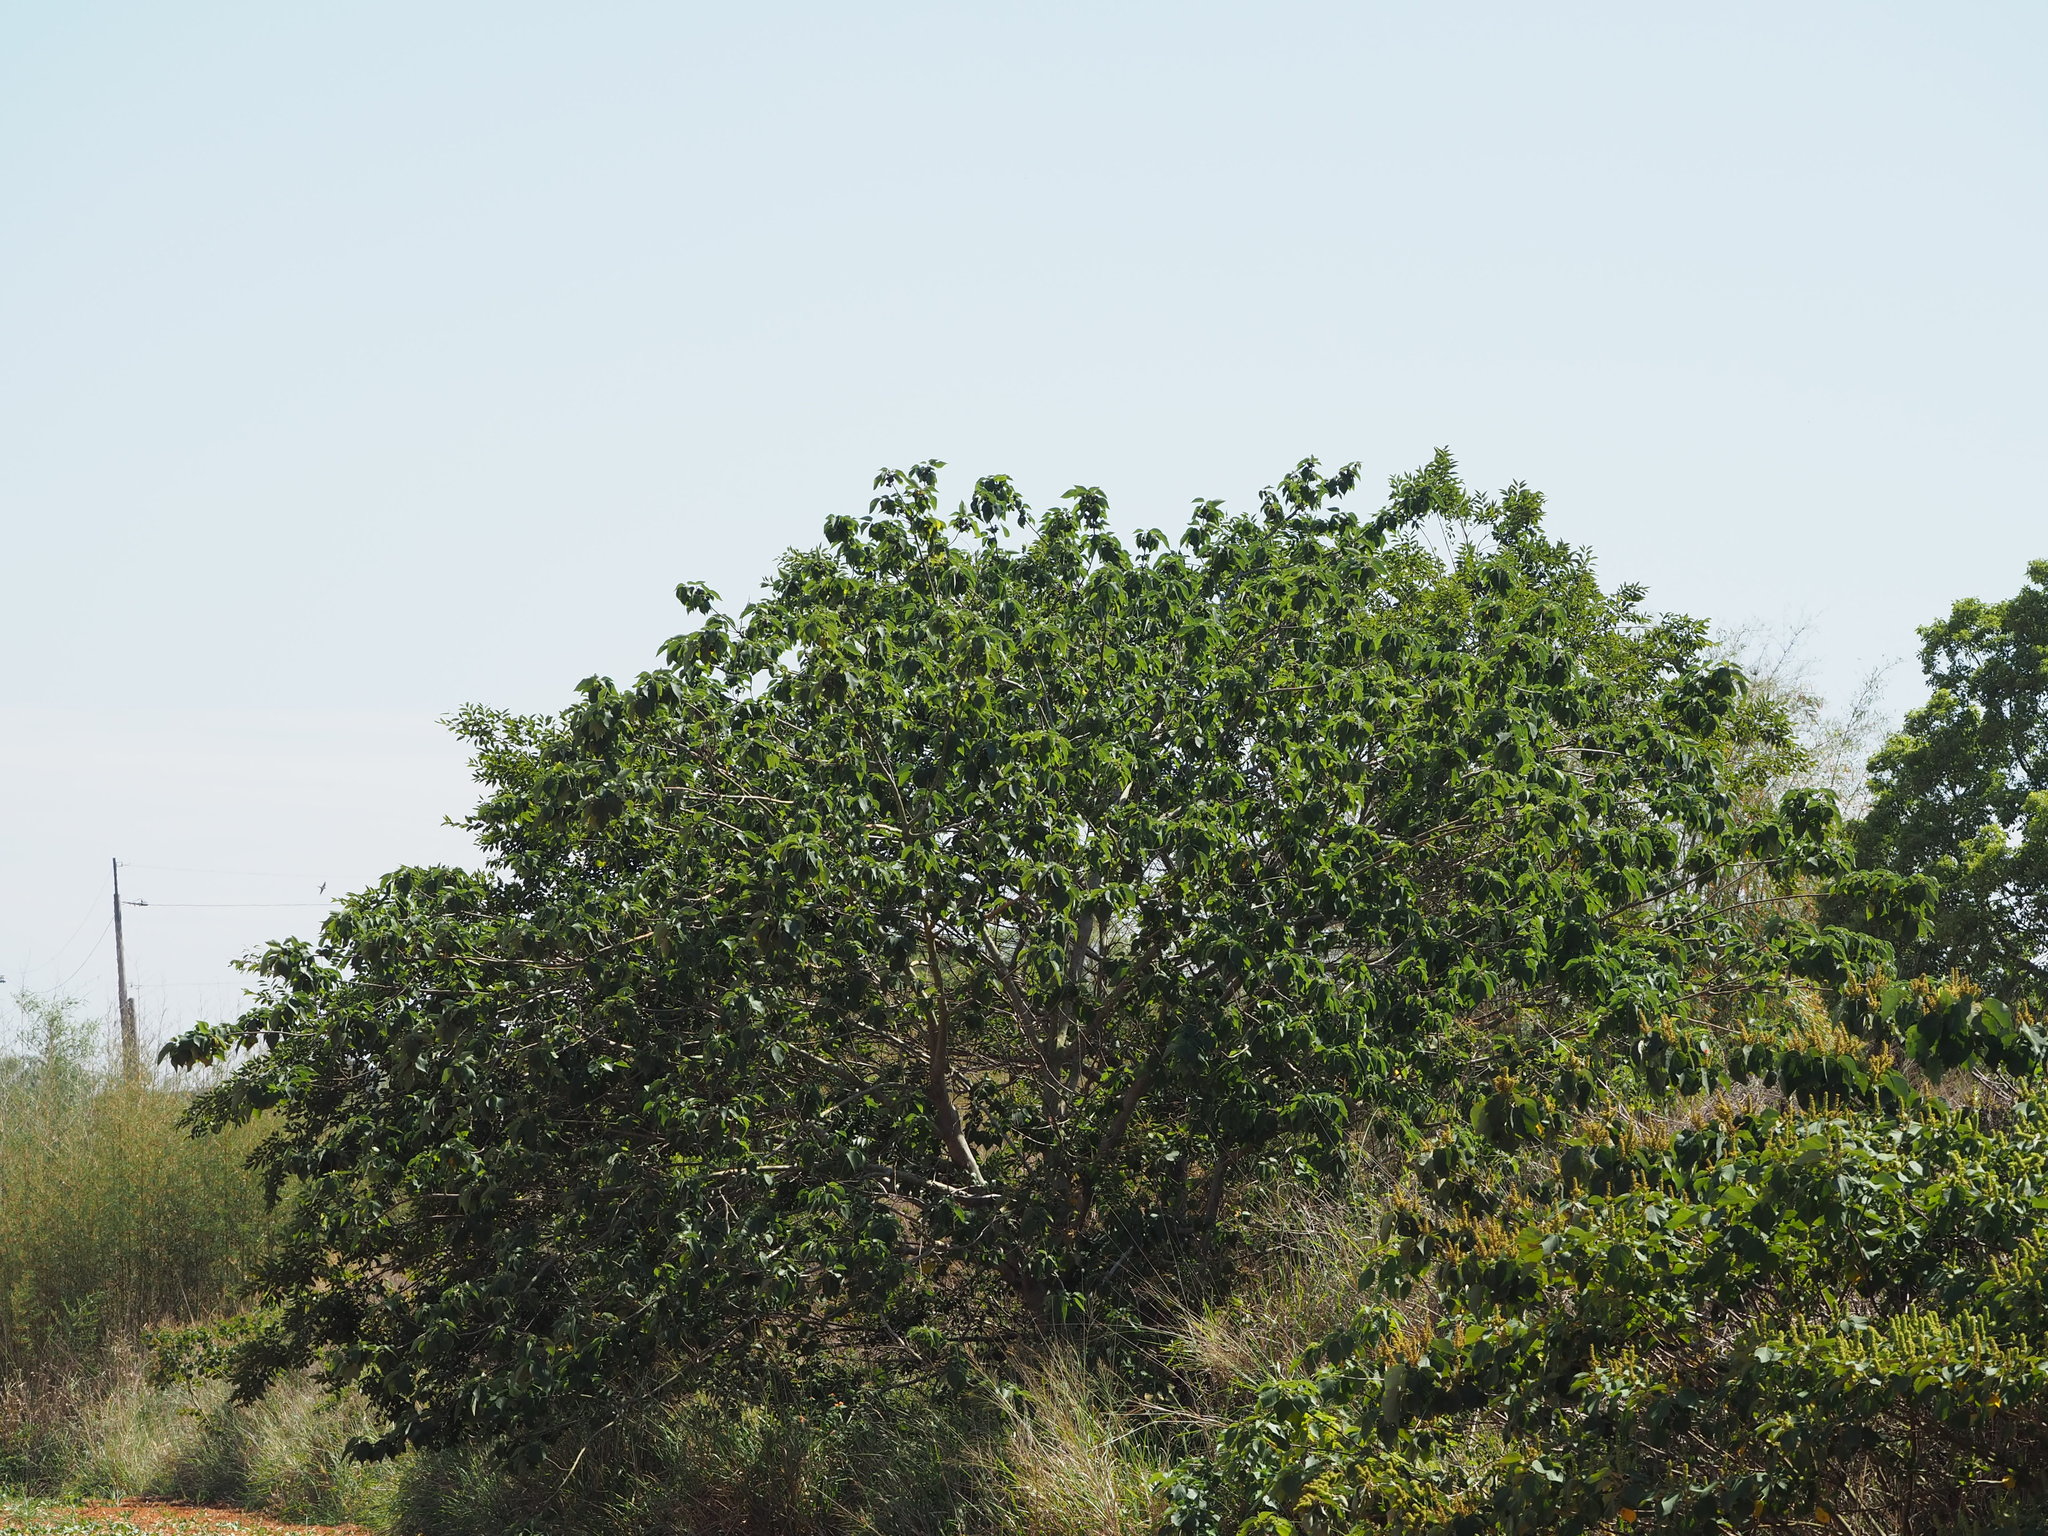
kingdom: Plantae
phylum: Tracheophyta
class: Magnoliopsida
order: Rosales
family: Moraceae
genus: Broussonetia
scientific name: Broussonetia papyrifera
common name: Paper mulberry
